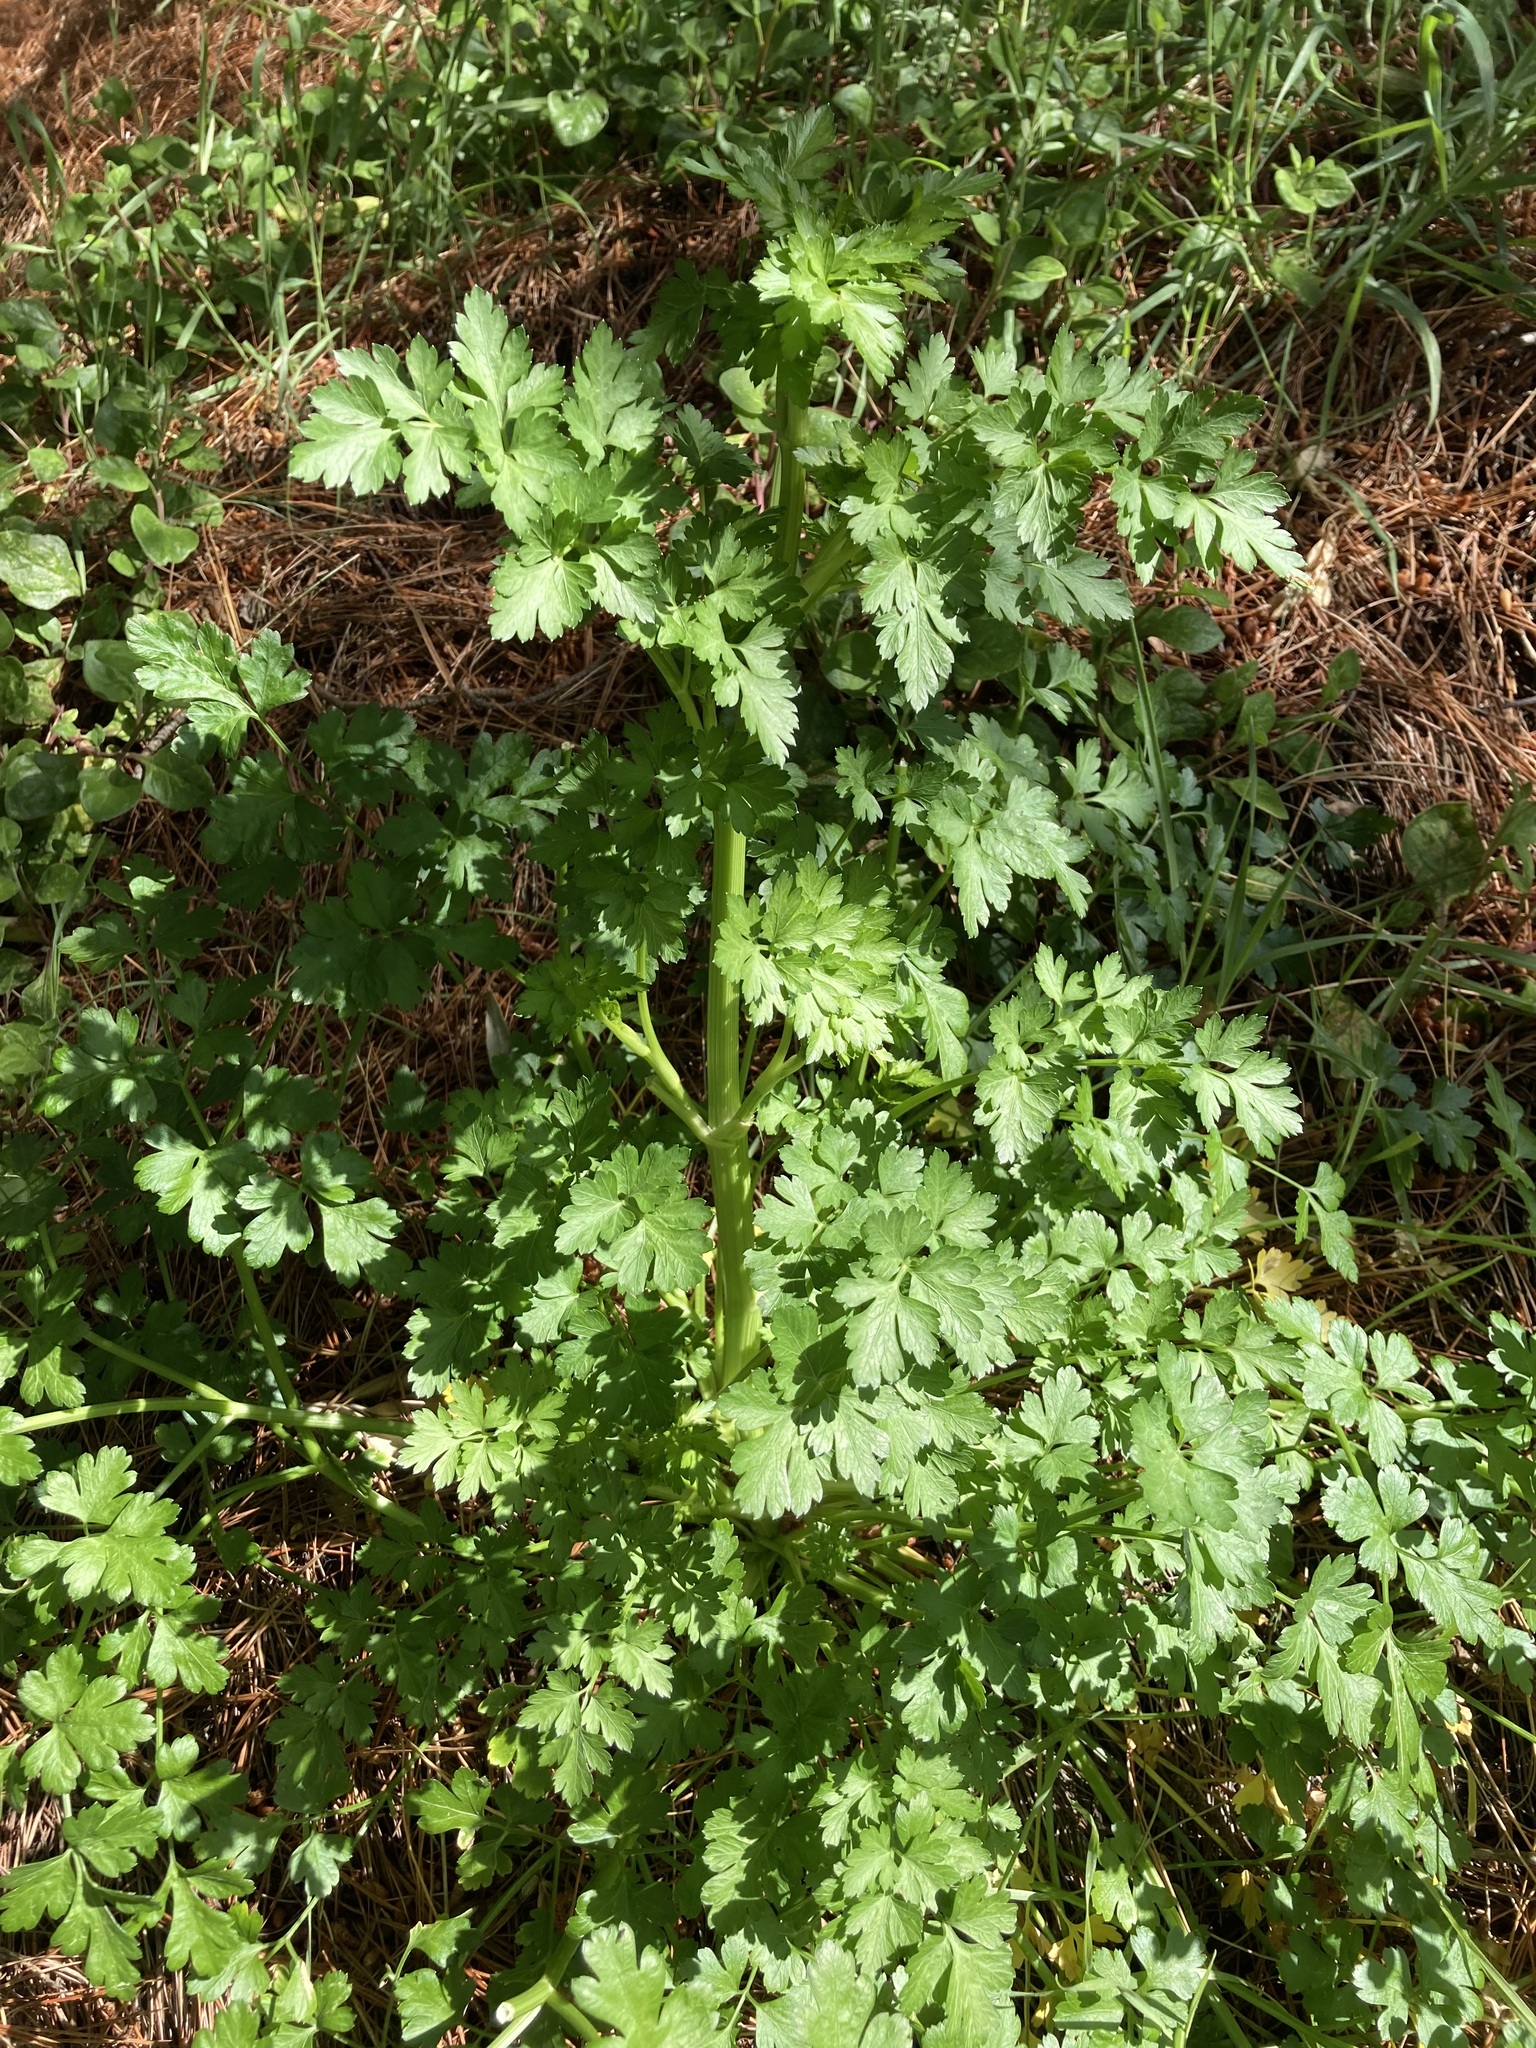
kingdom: Plantae
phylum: Tracheophyta
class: Magnoliopsida
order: Apiales
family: Apiaceae
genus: Apium
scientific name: Apium graveolens
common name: Wild celery
